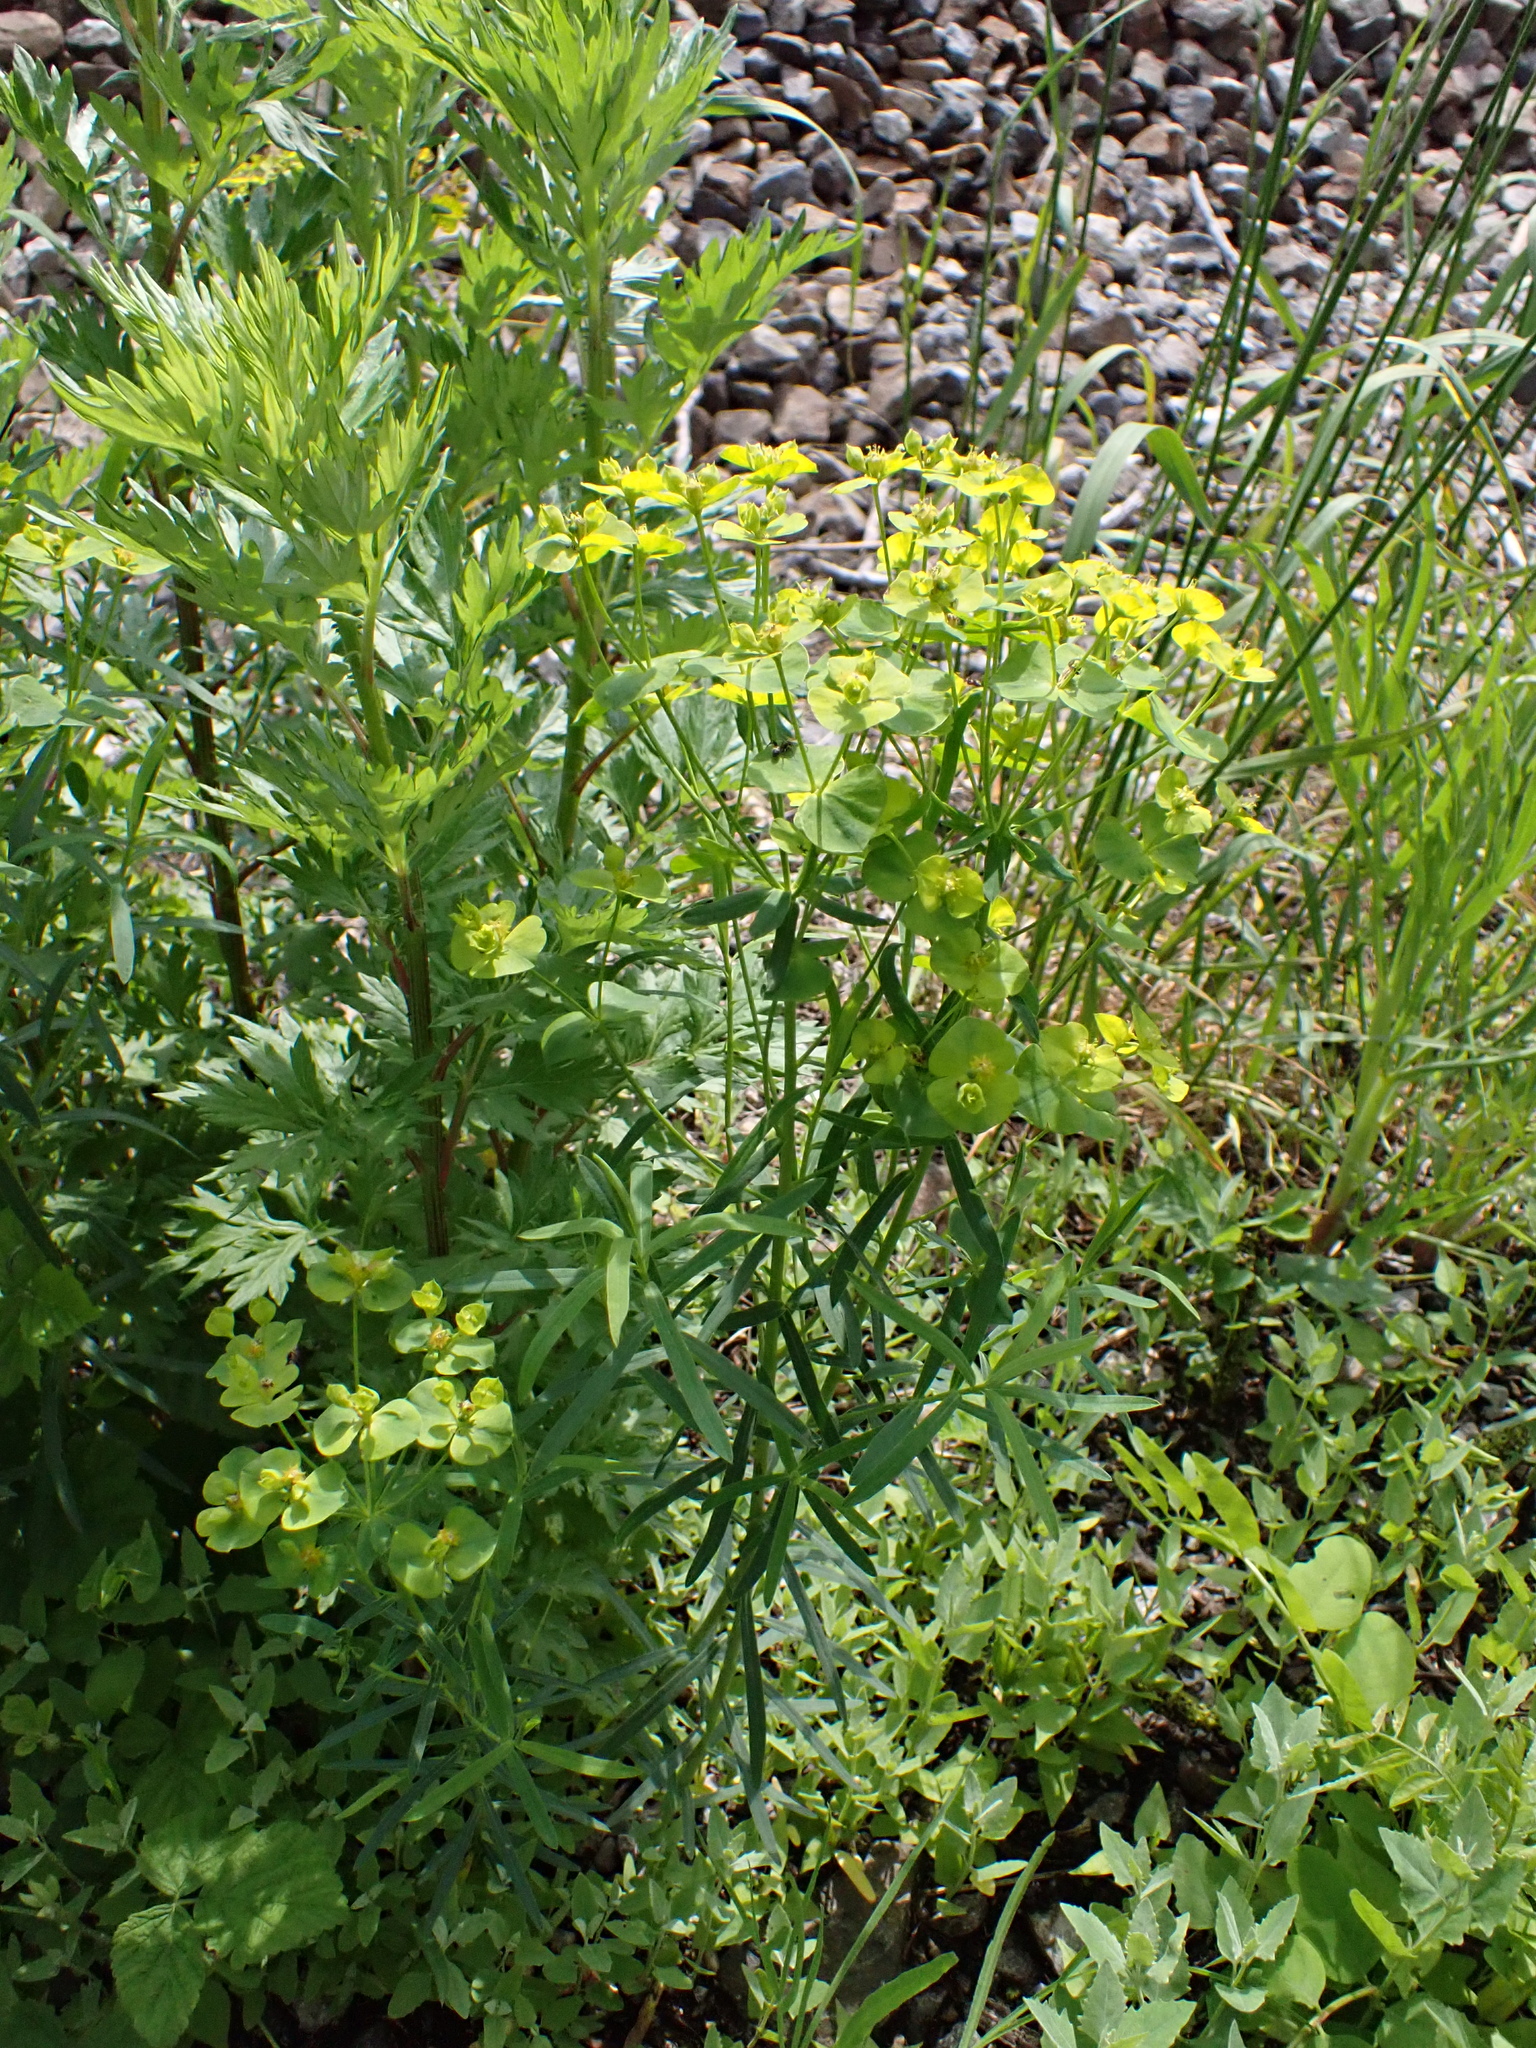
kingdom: Plantae
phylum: Tracheophyta
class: Magnoliopsida
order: Malpighiales
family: Euphorbiaceae
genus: Euphorbia
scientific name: Euphorbia saratoi
